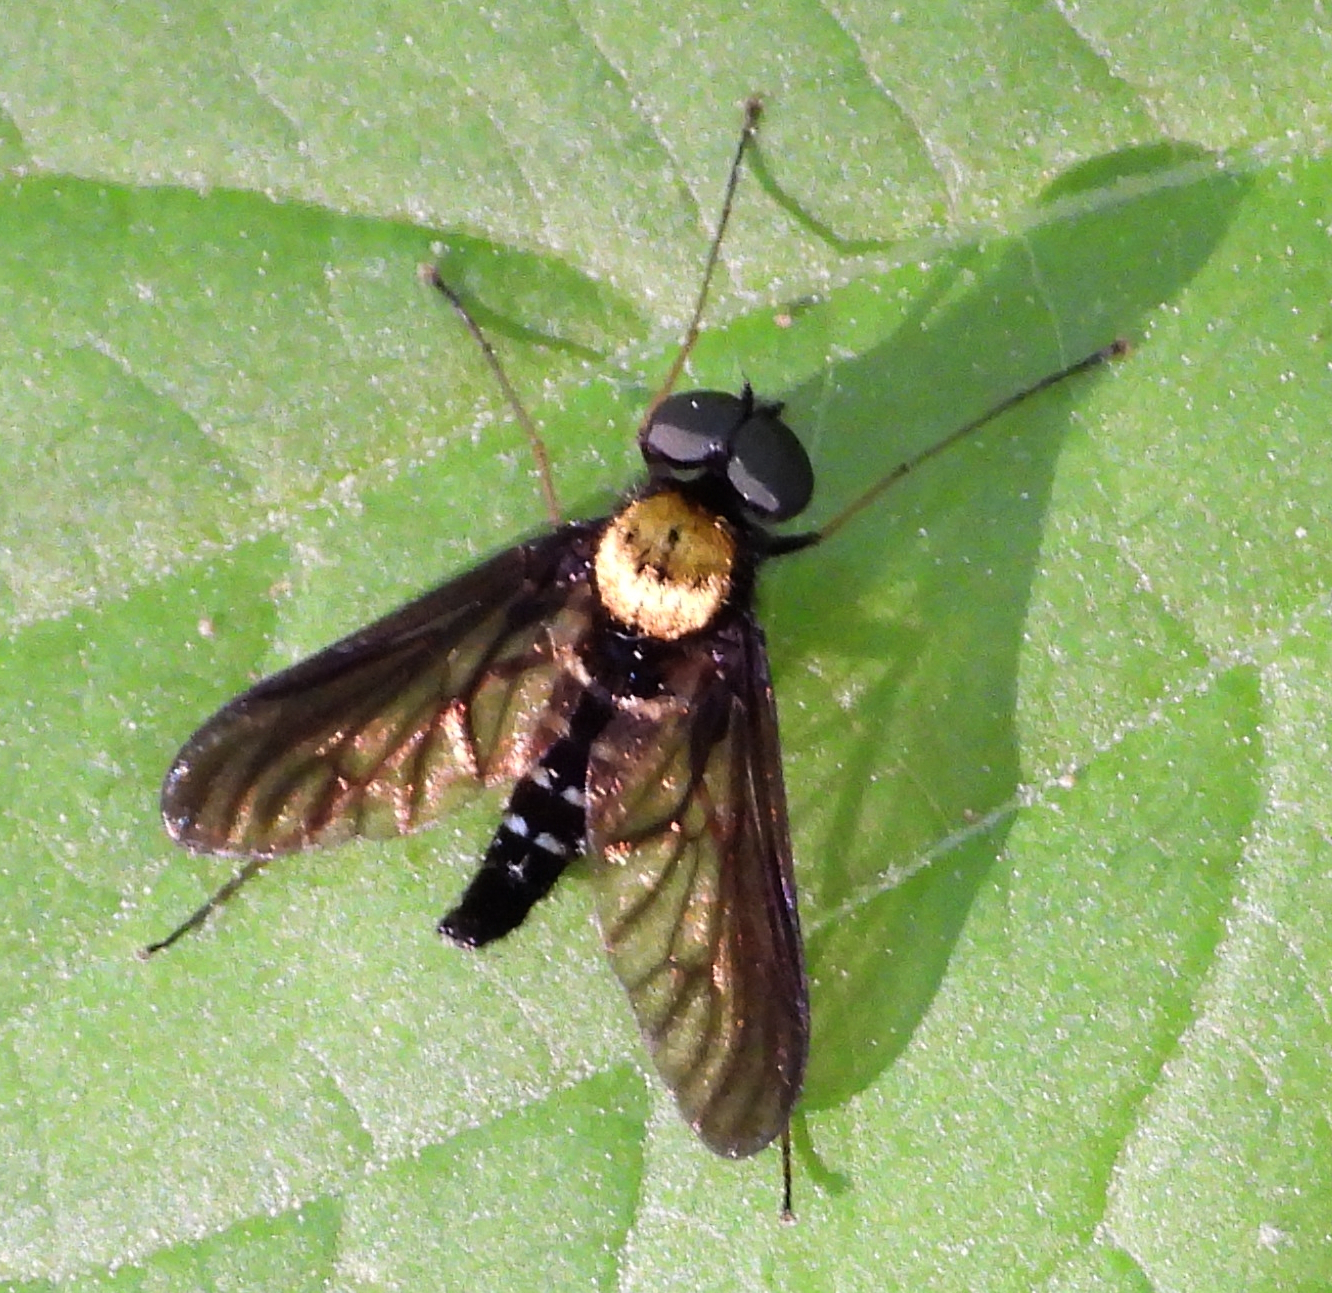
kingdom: Animalia
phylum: Arthropoda
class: Insecta
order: Diptera
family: Rhagionidae
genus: Chrysopilus
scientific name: Chrysopilus thoracicus
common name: Golden-backed snipe fly
